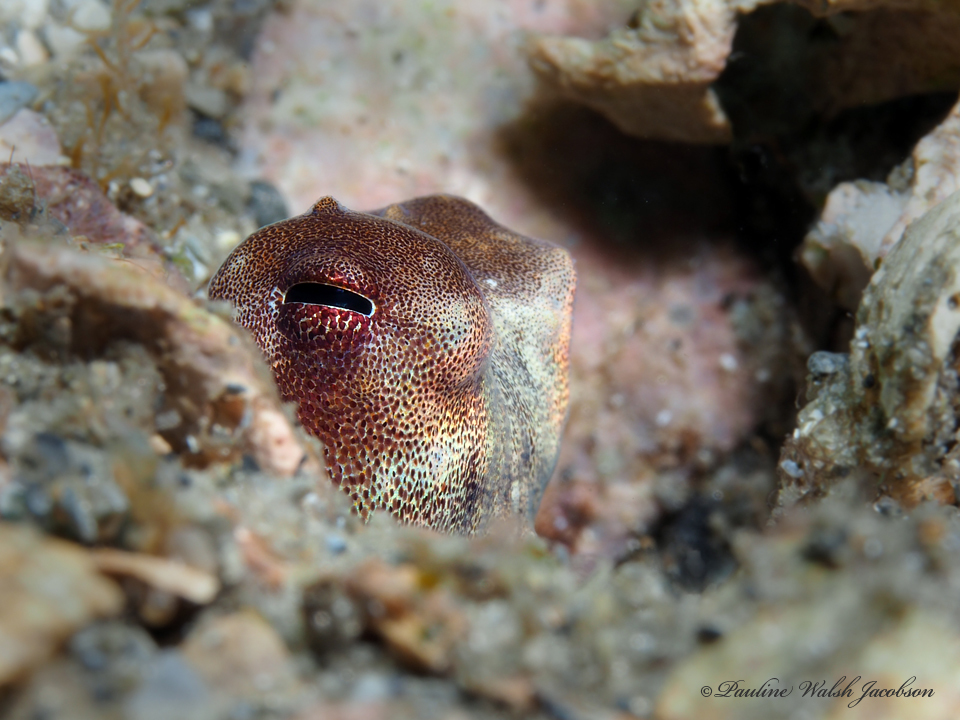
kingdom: Animalia
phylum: Mollusca
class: Cephalopoda
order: Octopoda
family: Octopodidae
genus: Macrotritopus
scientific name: Macrotritopus defilippi
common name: Lilliput longarm octopus
